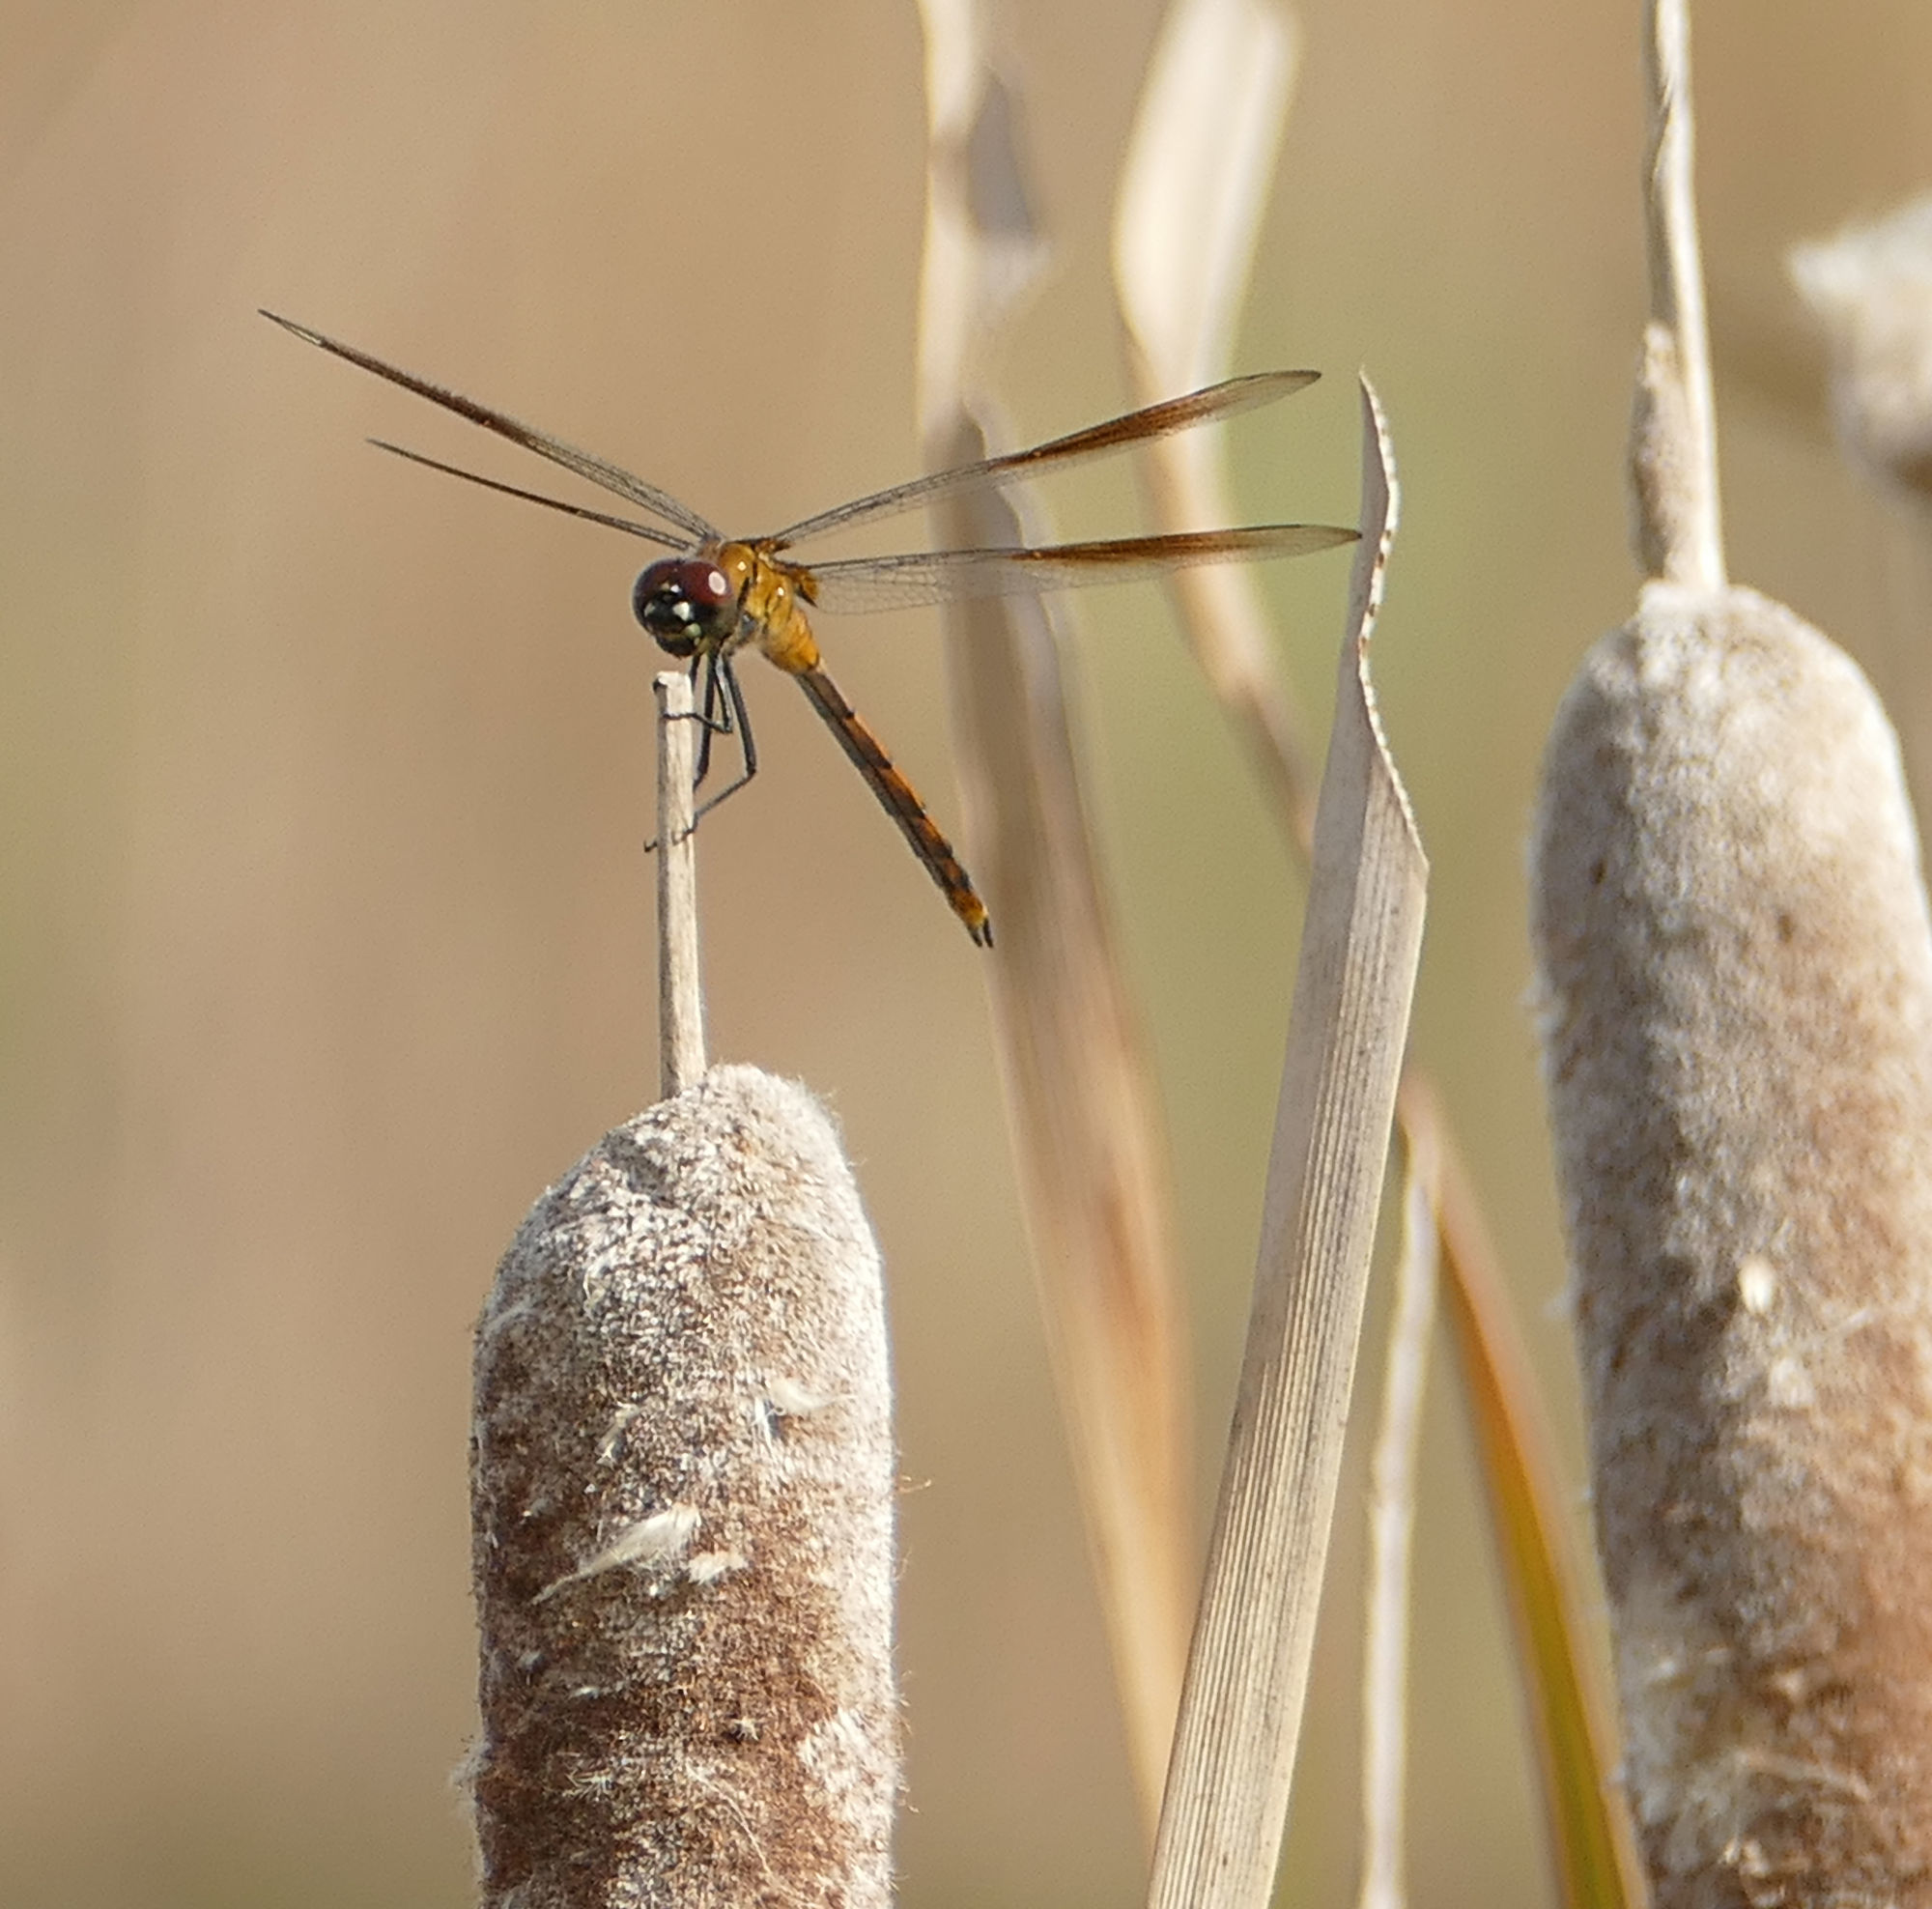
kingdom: Animalia
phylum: Arthropoda
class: Insecta
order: Odonata
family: Libellulidae
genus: Brachymesia
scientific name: Brachymesia gravida
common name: Four-spotted pennant
